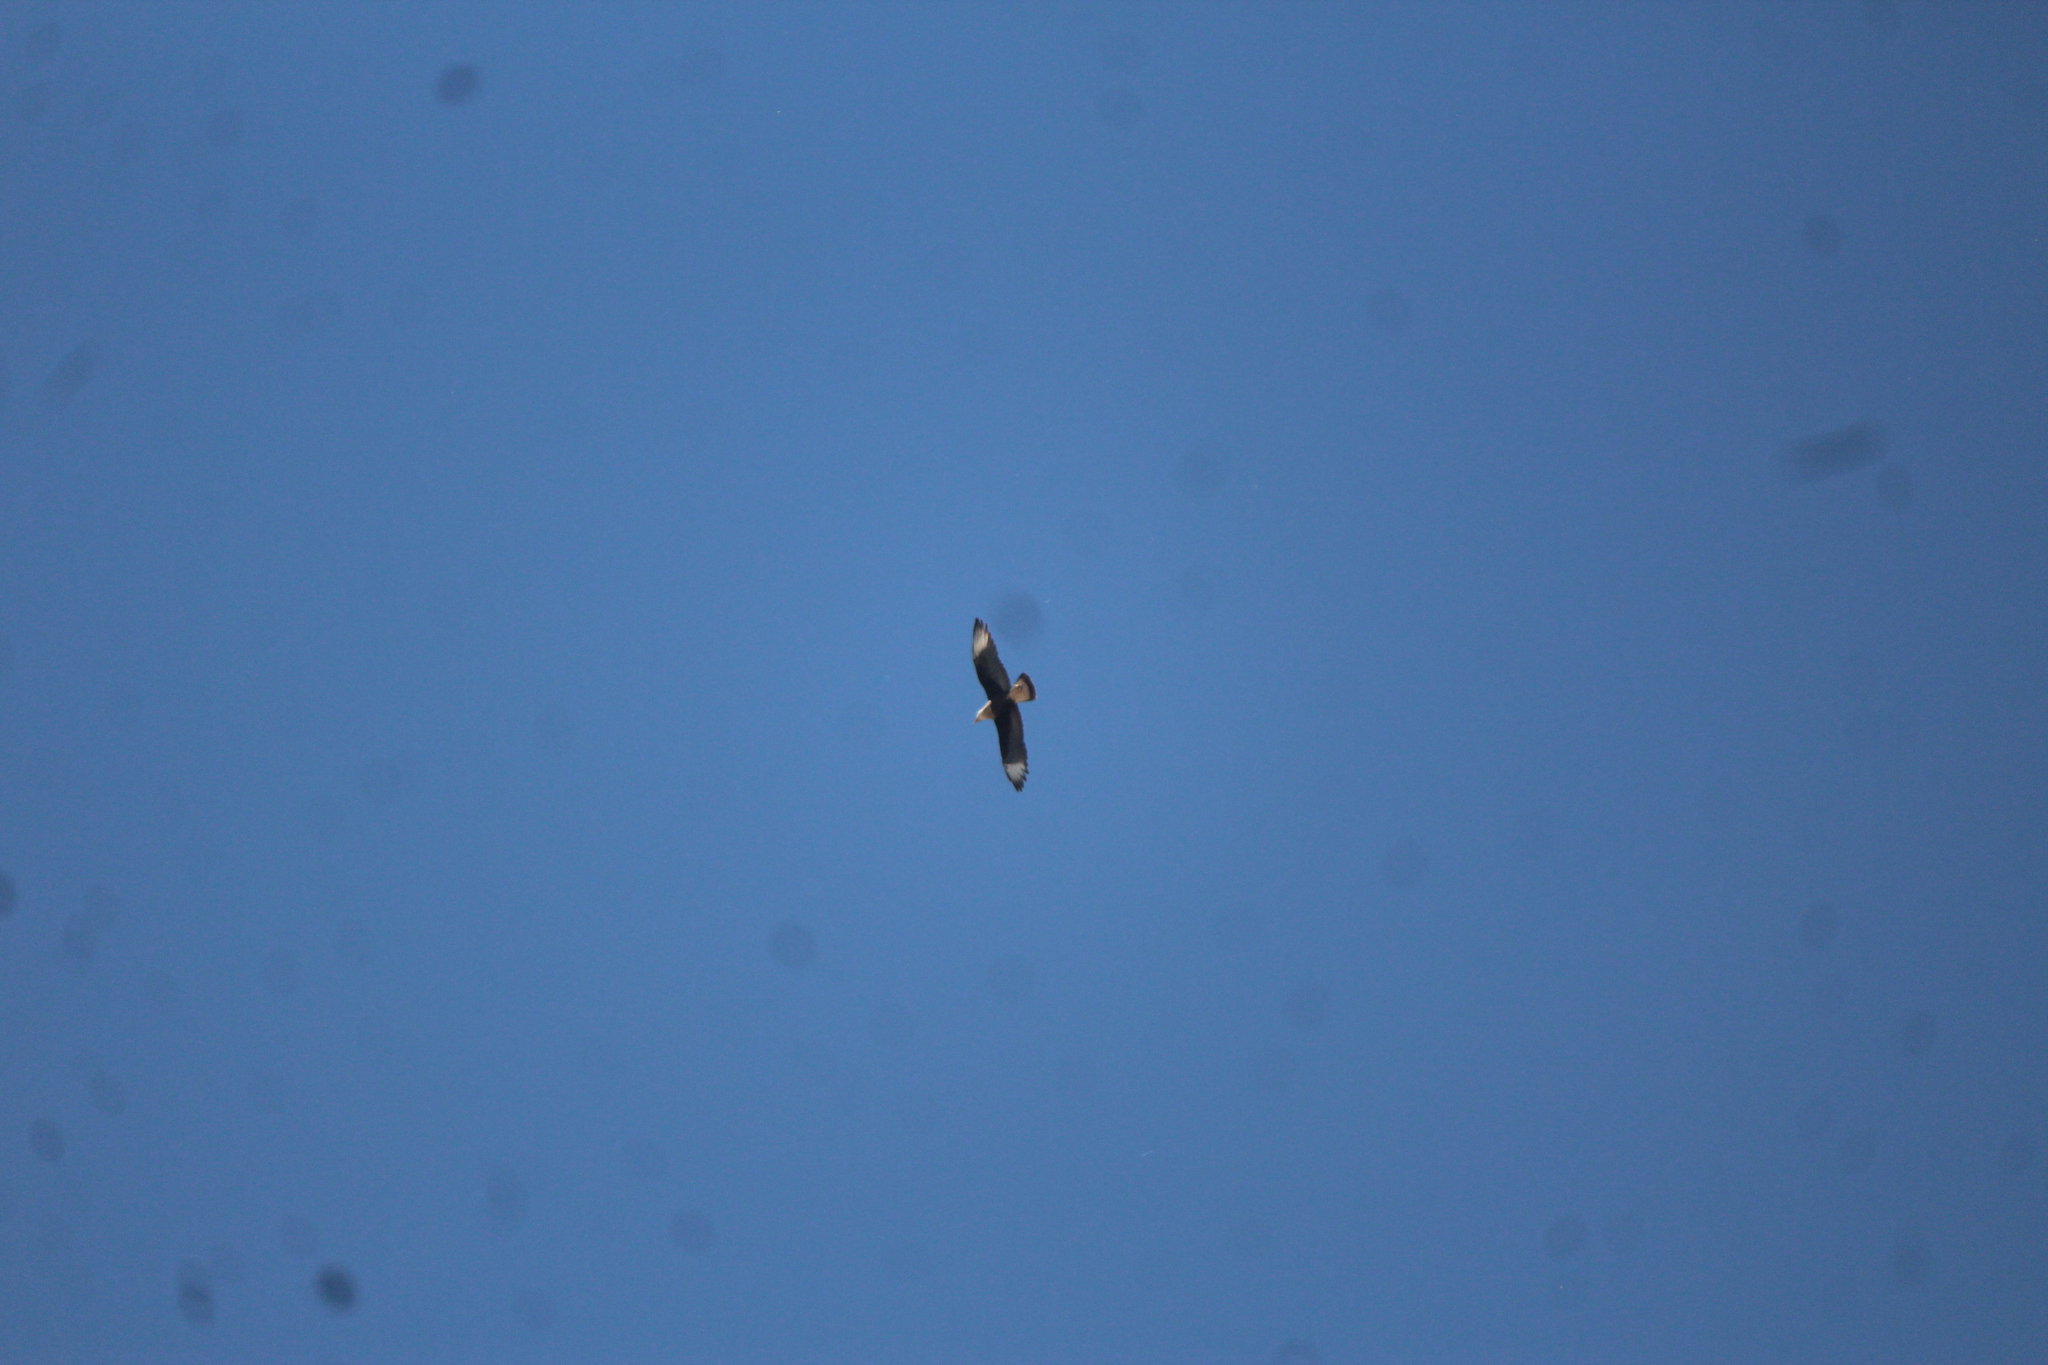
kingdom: Animalia
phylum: Chordata
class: Aves
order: Falconiformes
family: Falconidae
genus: Caracara
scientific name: Caracara plancus
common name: Southern caracara
